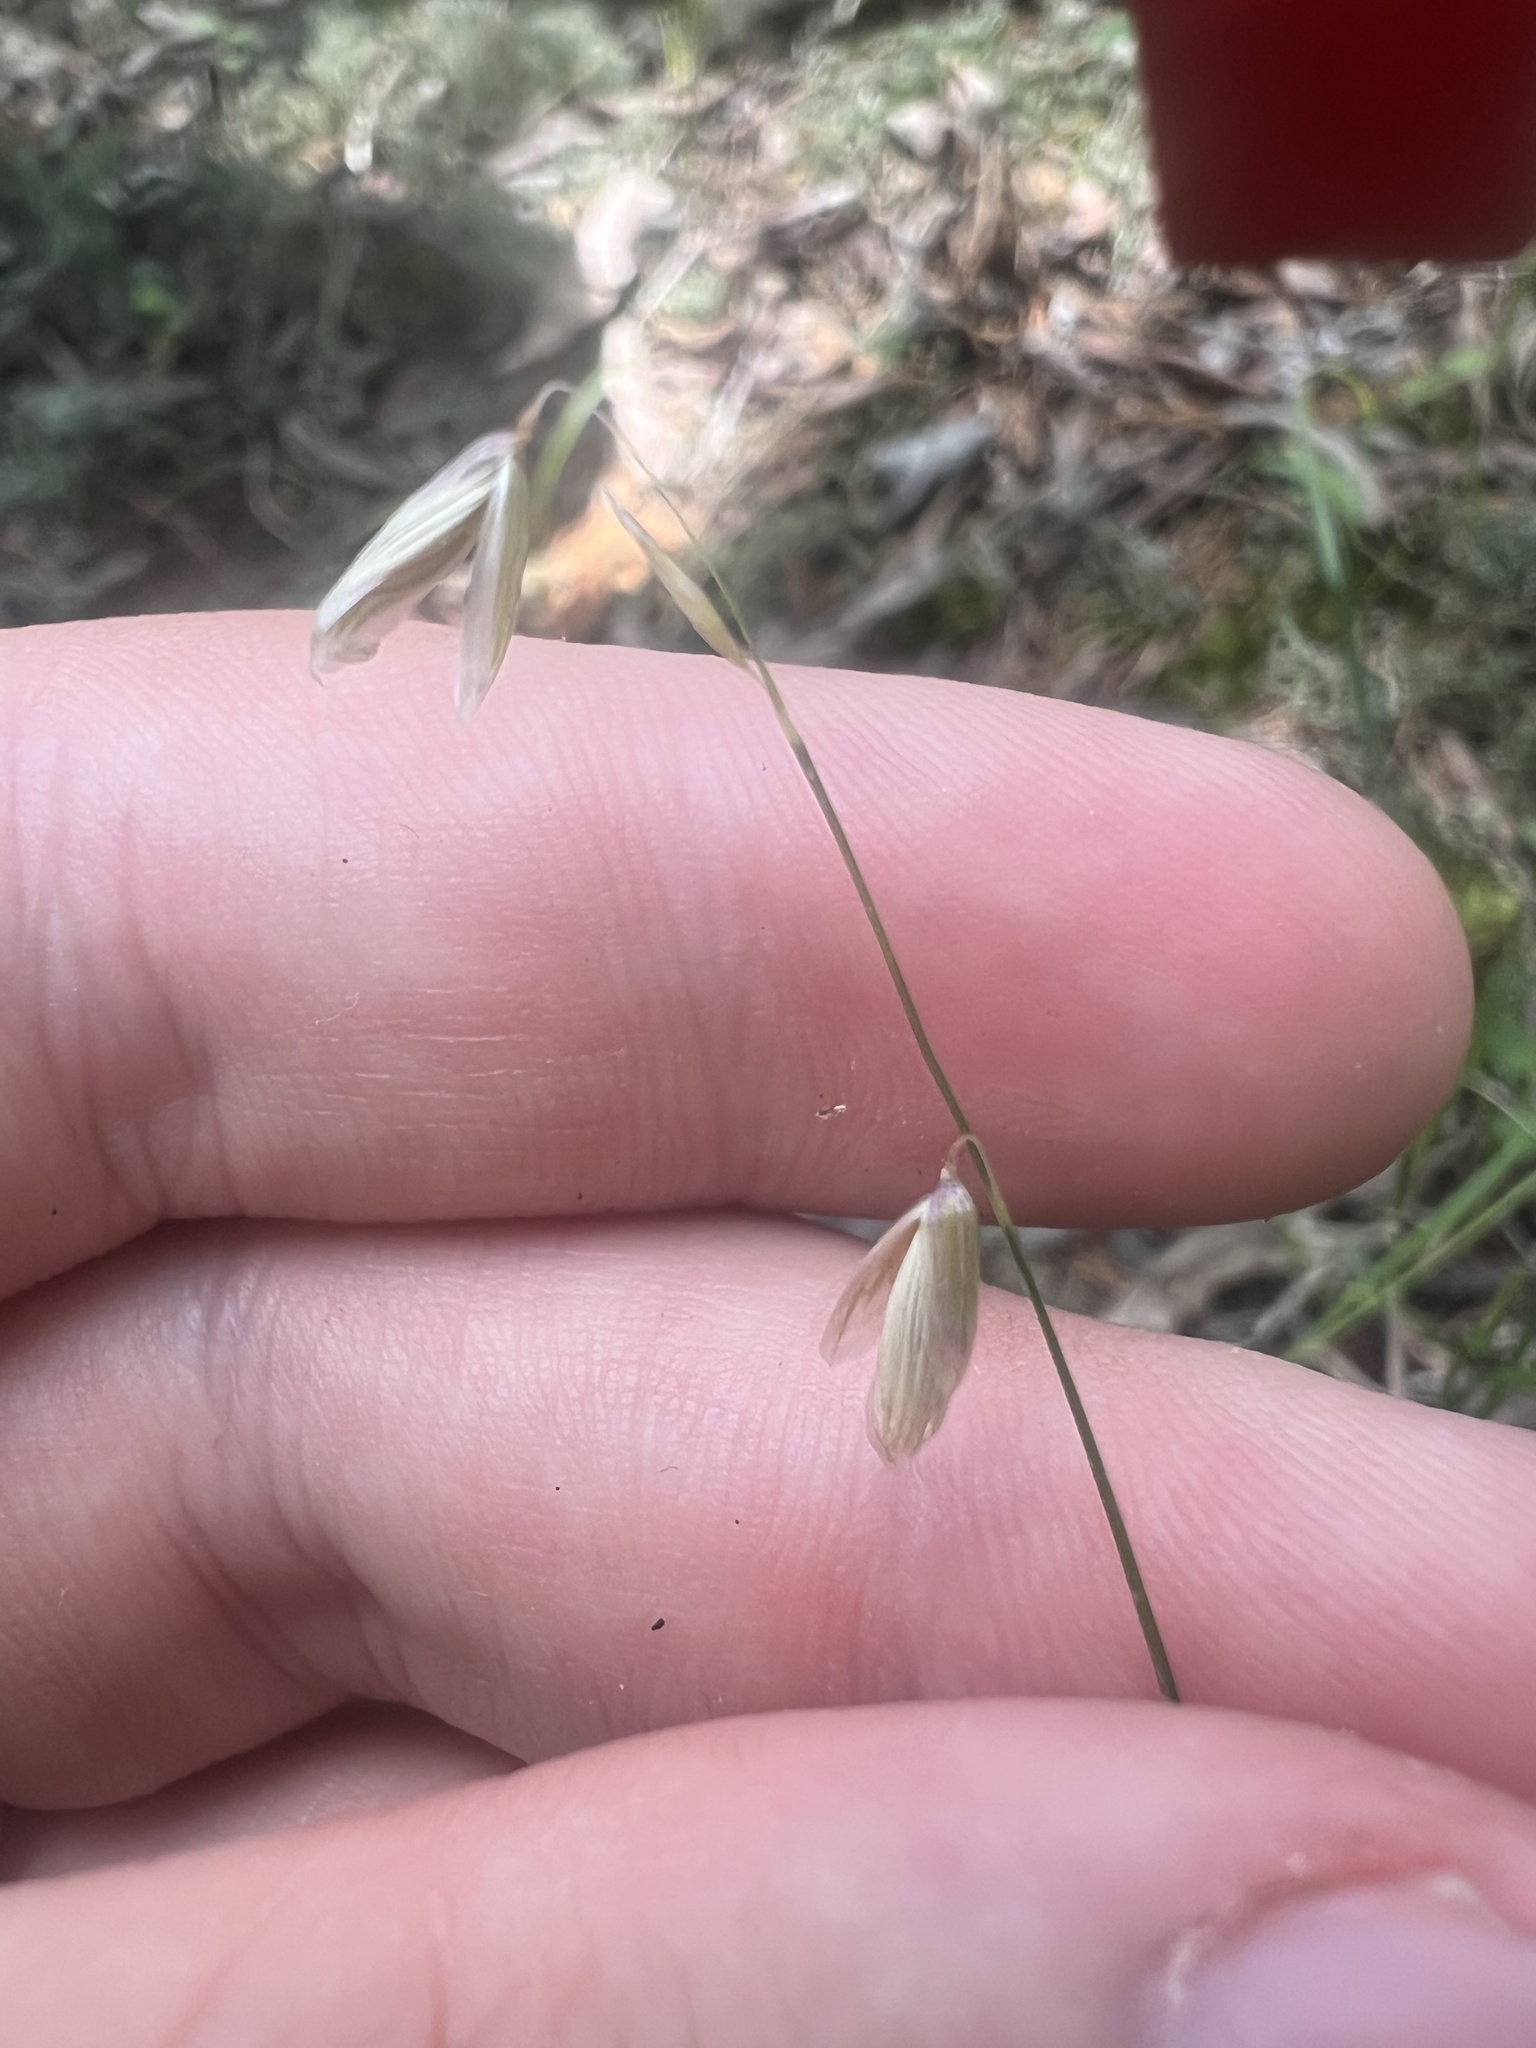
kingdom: Plantae
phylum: Tracheophyta
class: Liliopsida
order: Poales
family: Poaceae
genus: Melica
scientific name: Melica mutica
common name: Two-flower melic
